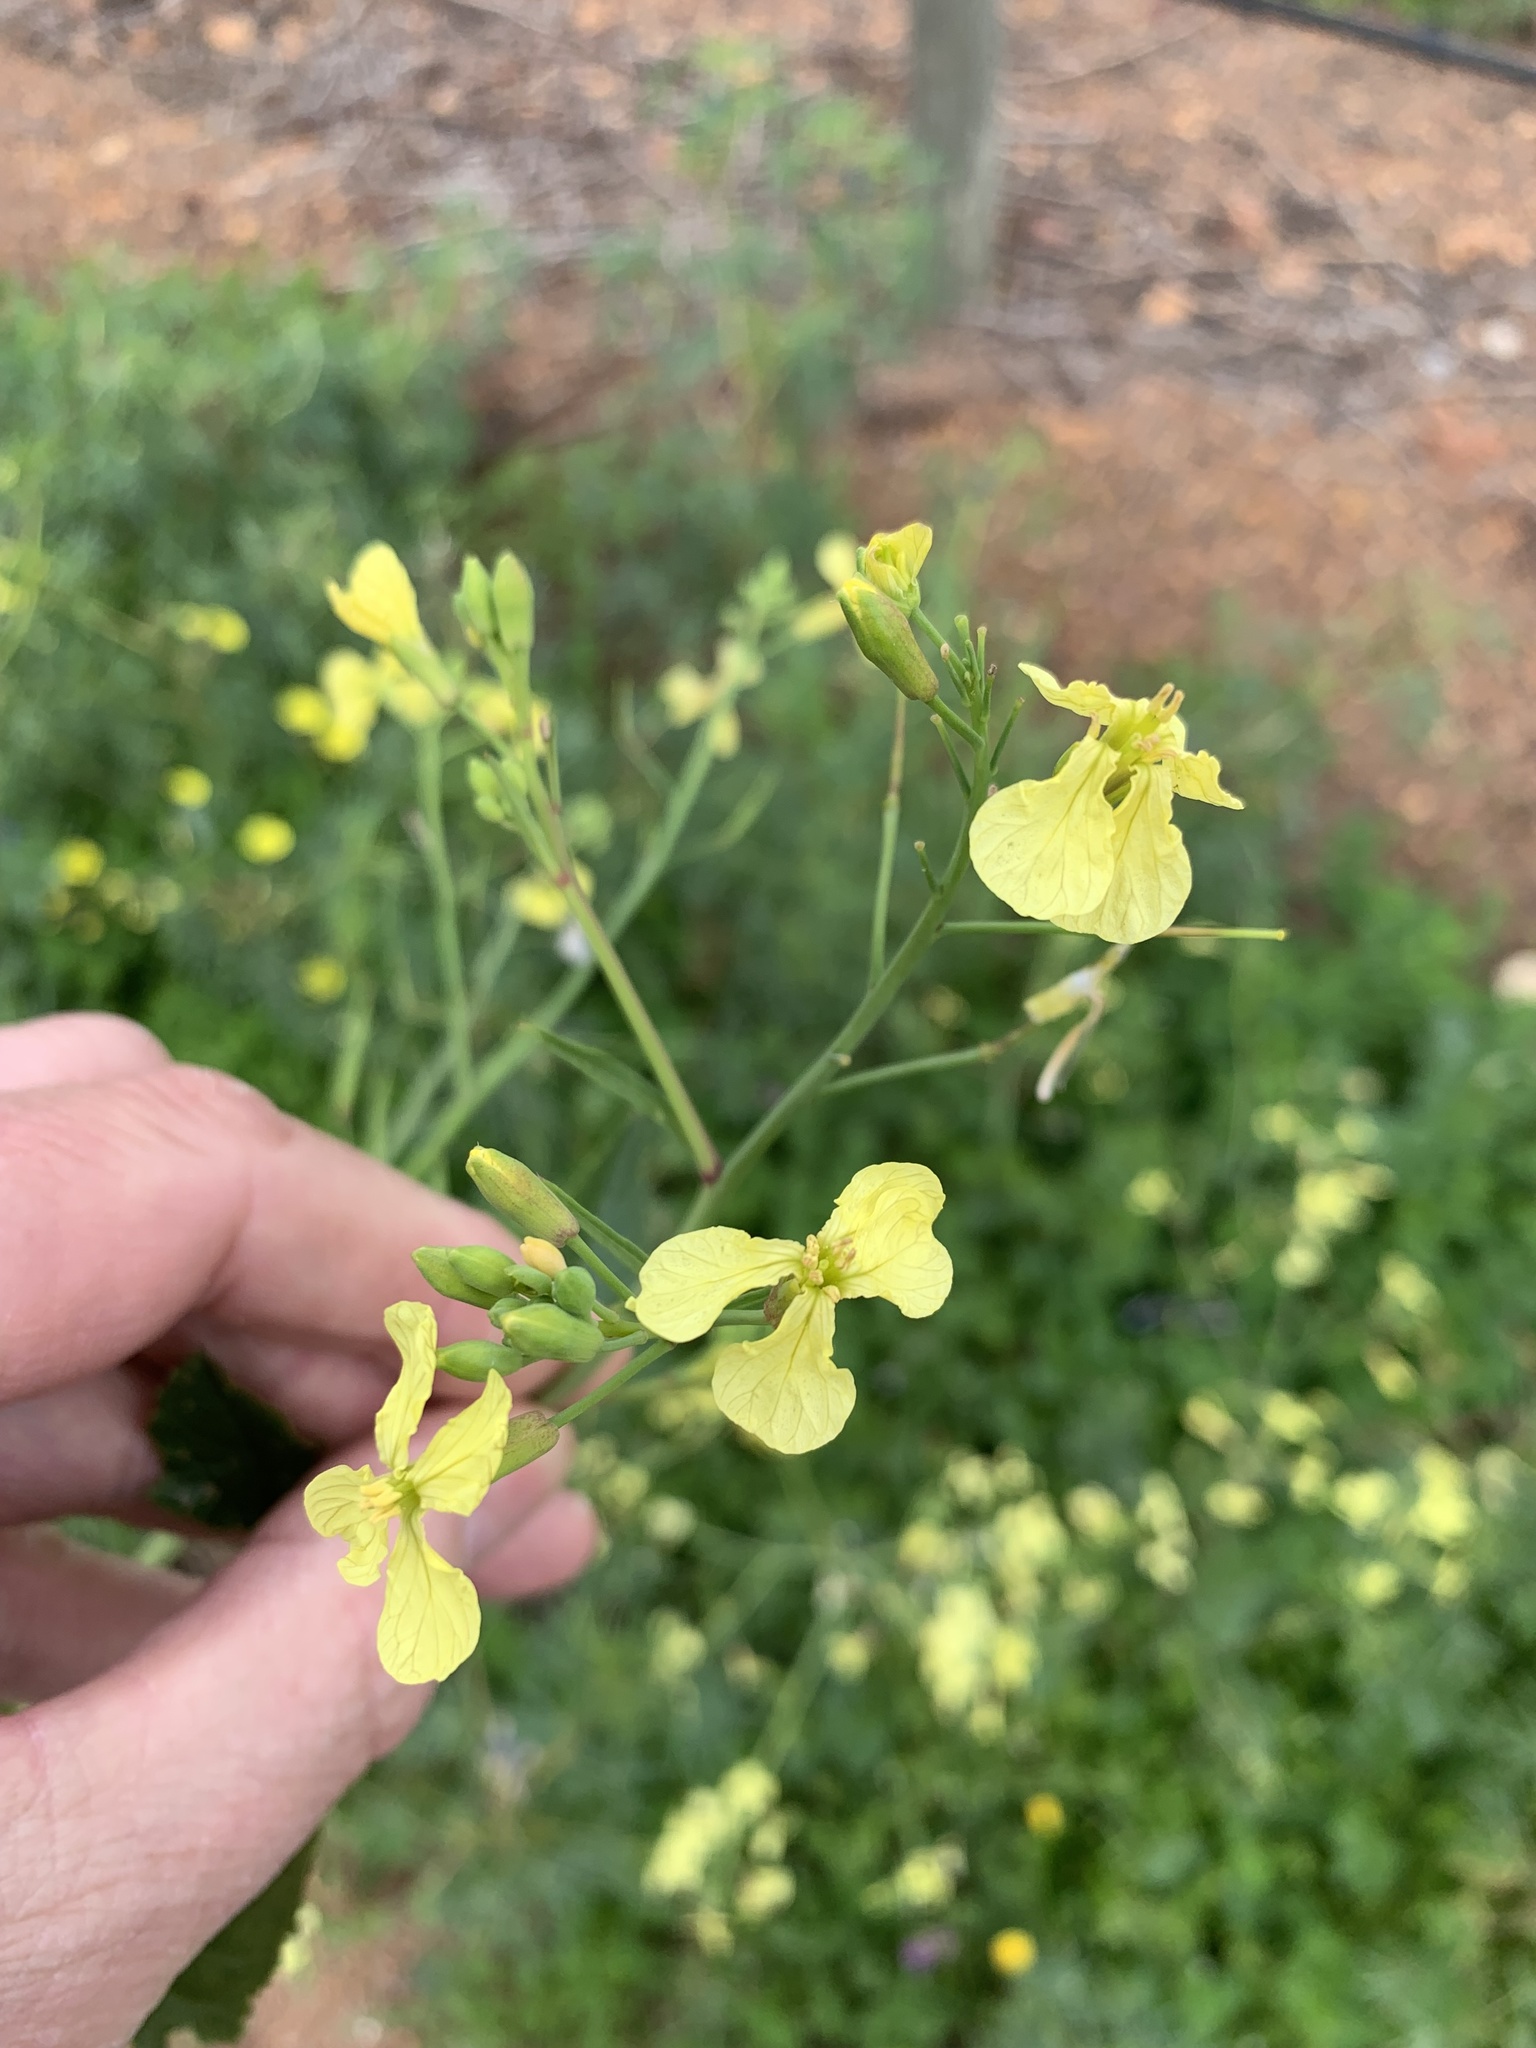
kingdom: Plantae
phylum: Tracheophyta
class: Magnoliopsida
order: Brassicales
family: Brassicaceae
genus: Raphanus
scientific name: Raphanus raphanistrum
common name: Wild radish
